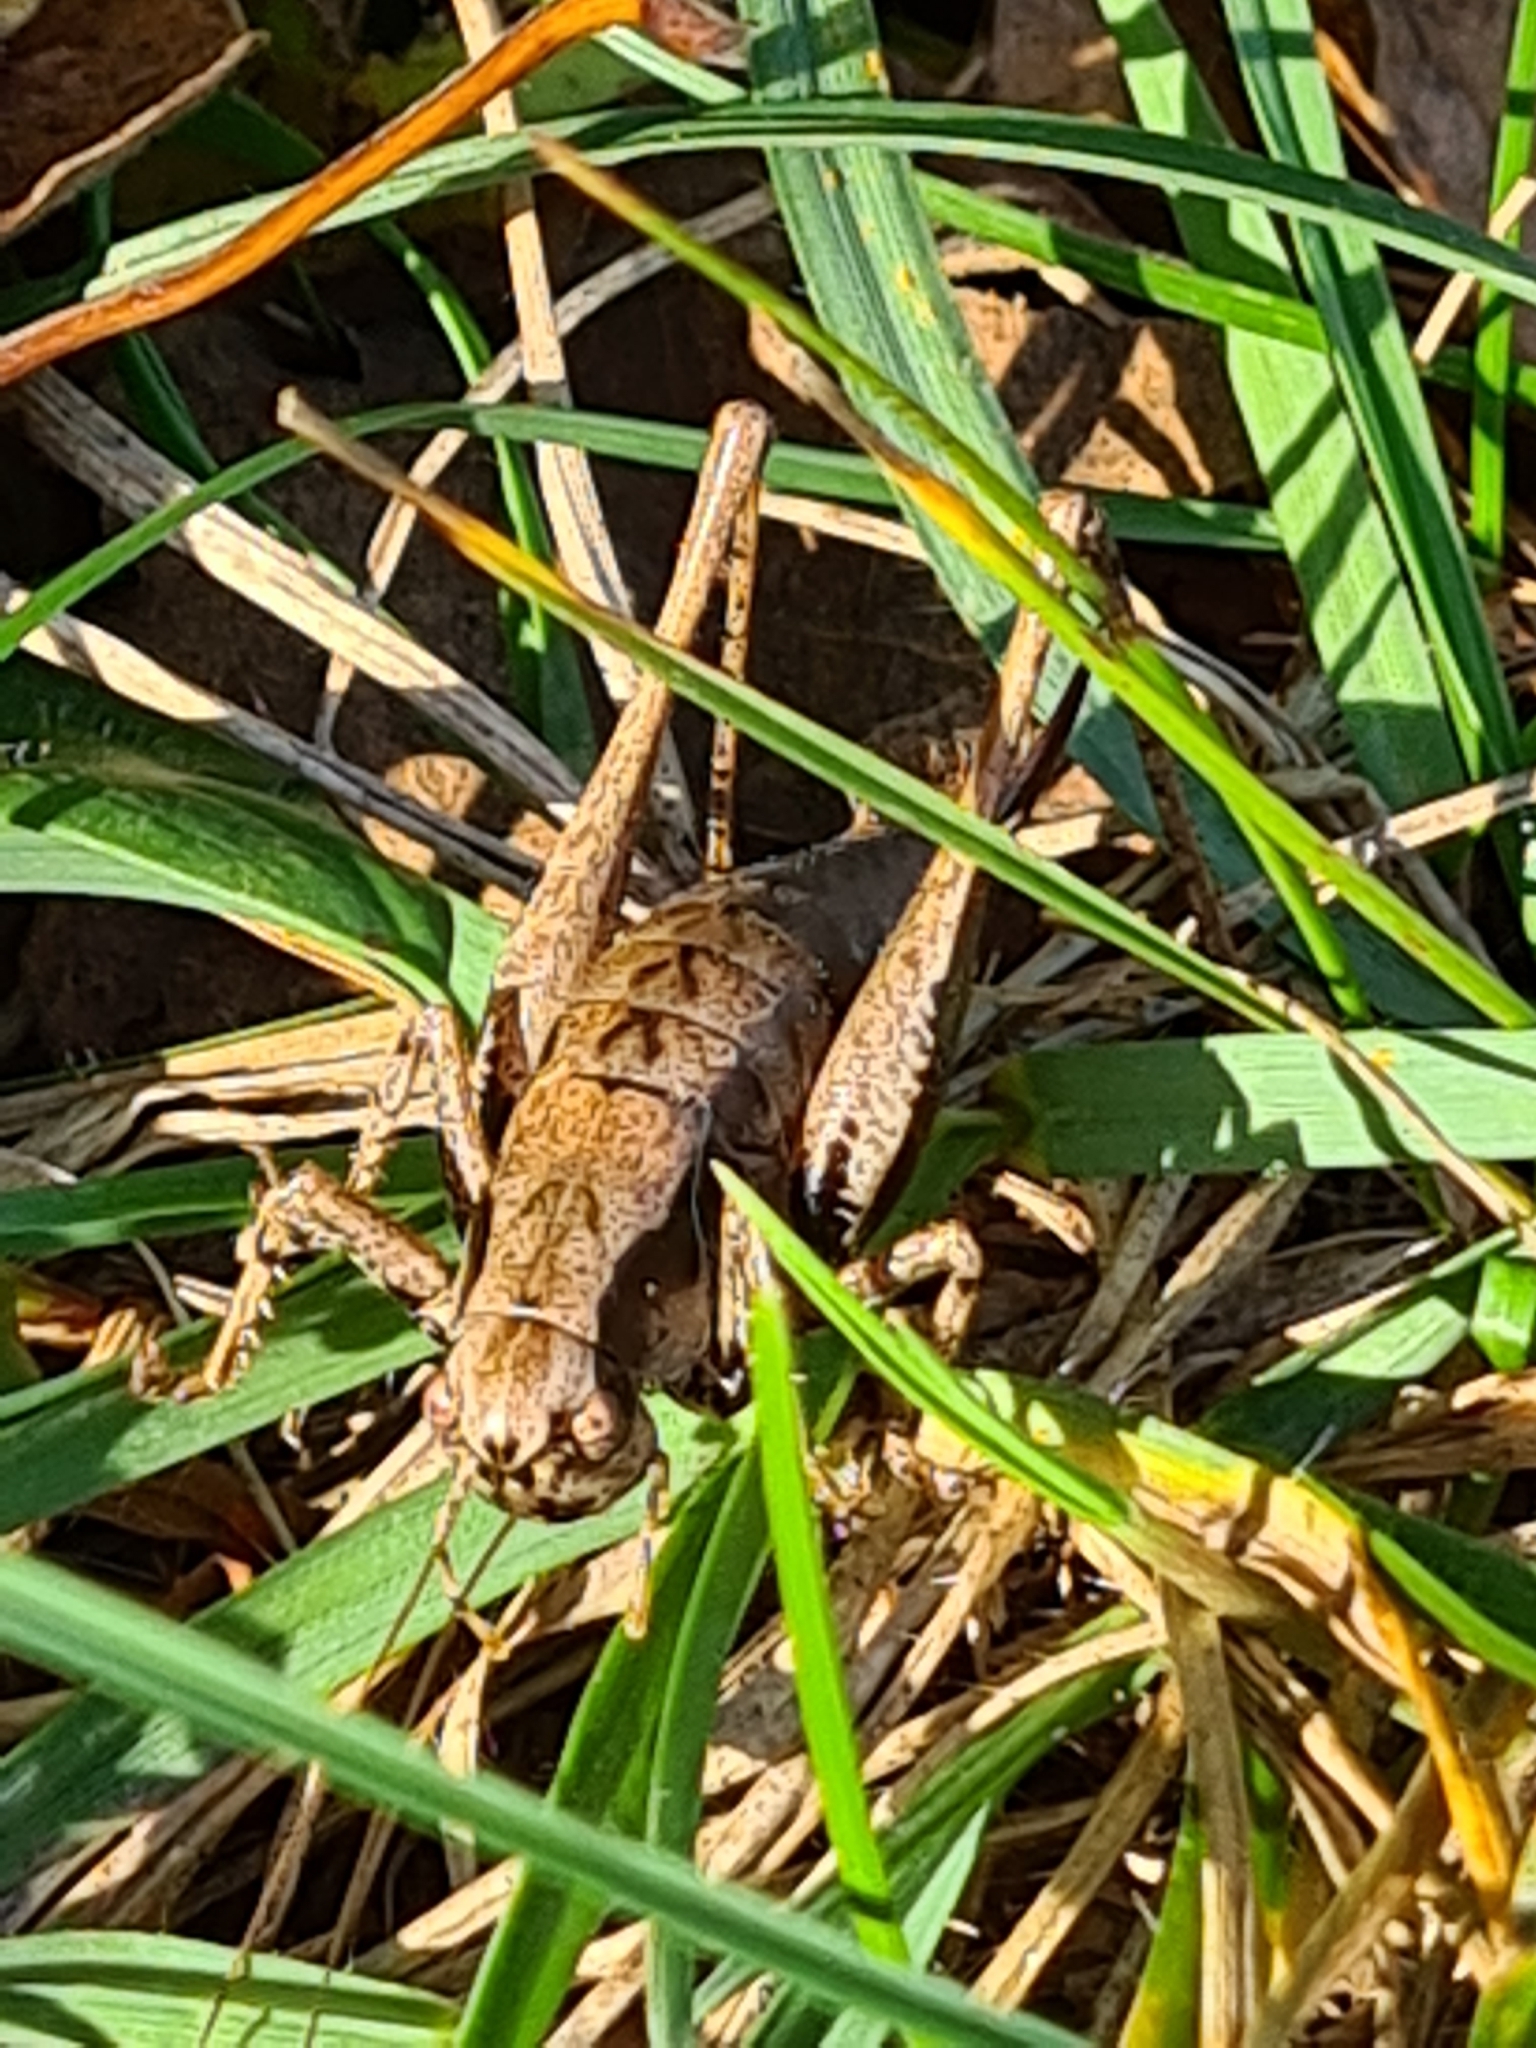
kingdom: Animalia
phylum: Arthropoda
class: Insecta
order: Orthoptera
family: Tettigoniidae
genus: Pholidoptera
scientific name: Pholidoptera griseoaptera
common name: Dark bush-cricket
